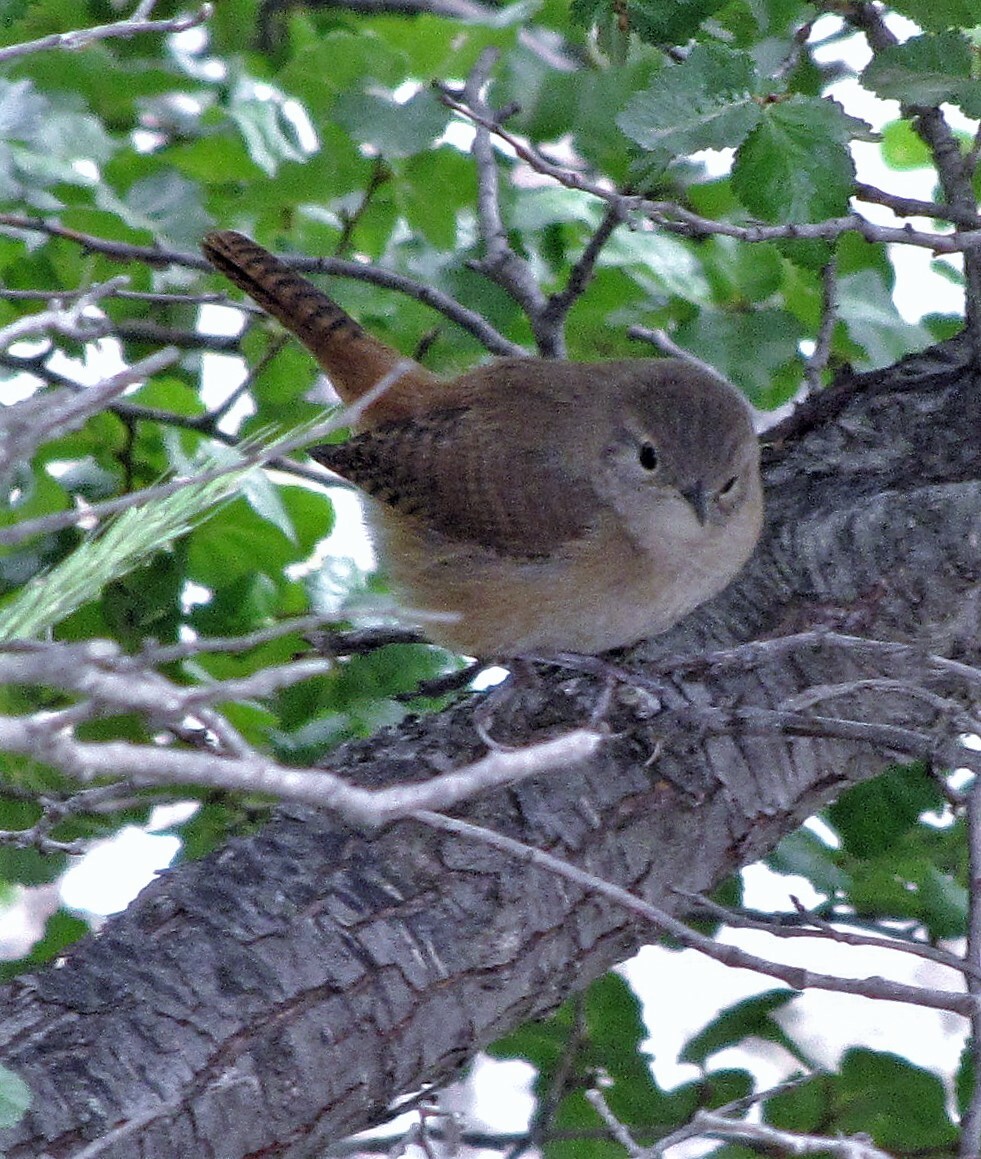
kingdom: Animalia
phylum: Chordata
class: Aves
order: Passeriformes
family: Troglodytidae
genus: Troglodytes
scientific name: Troglodytes aedon
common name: House wren
